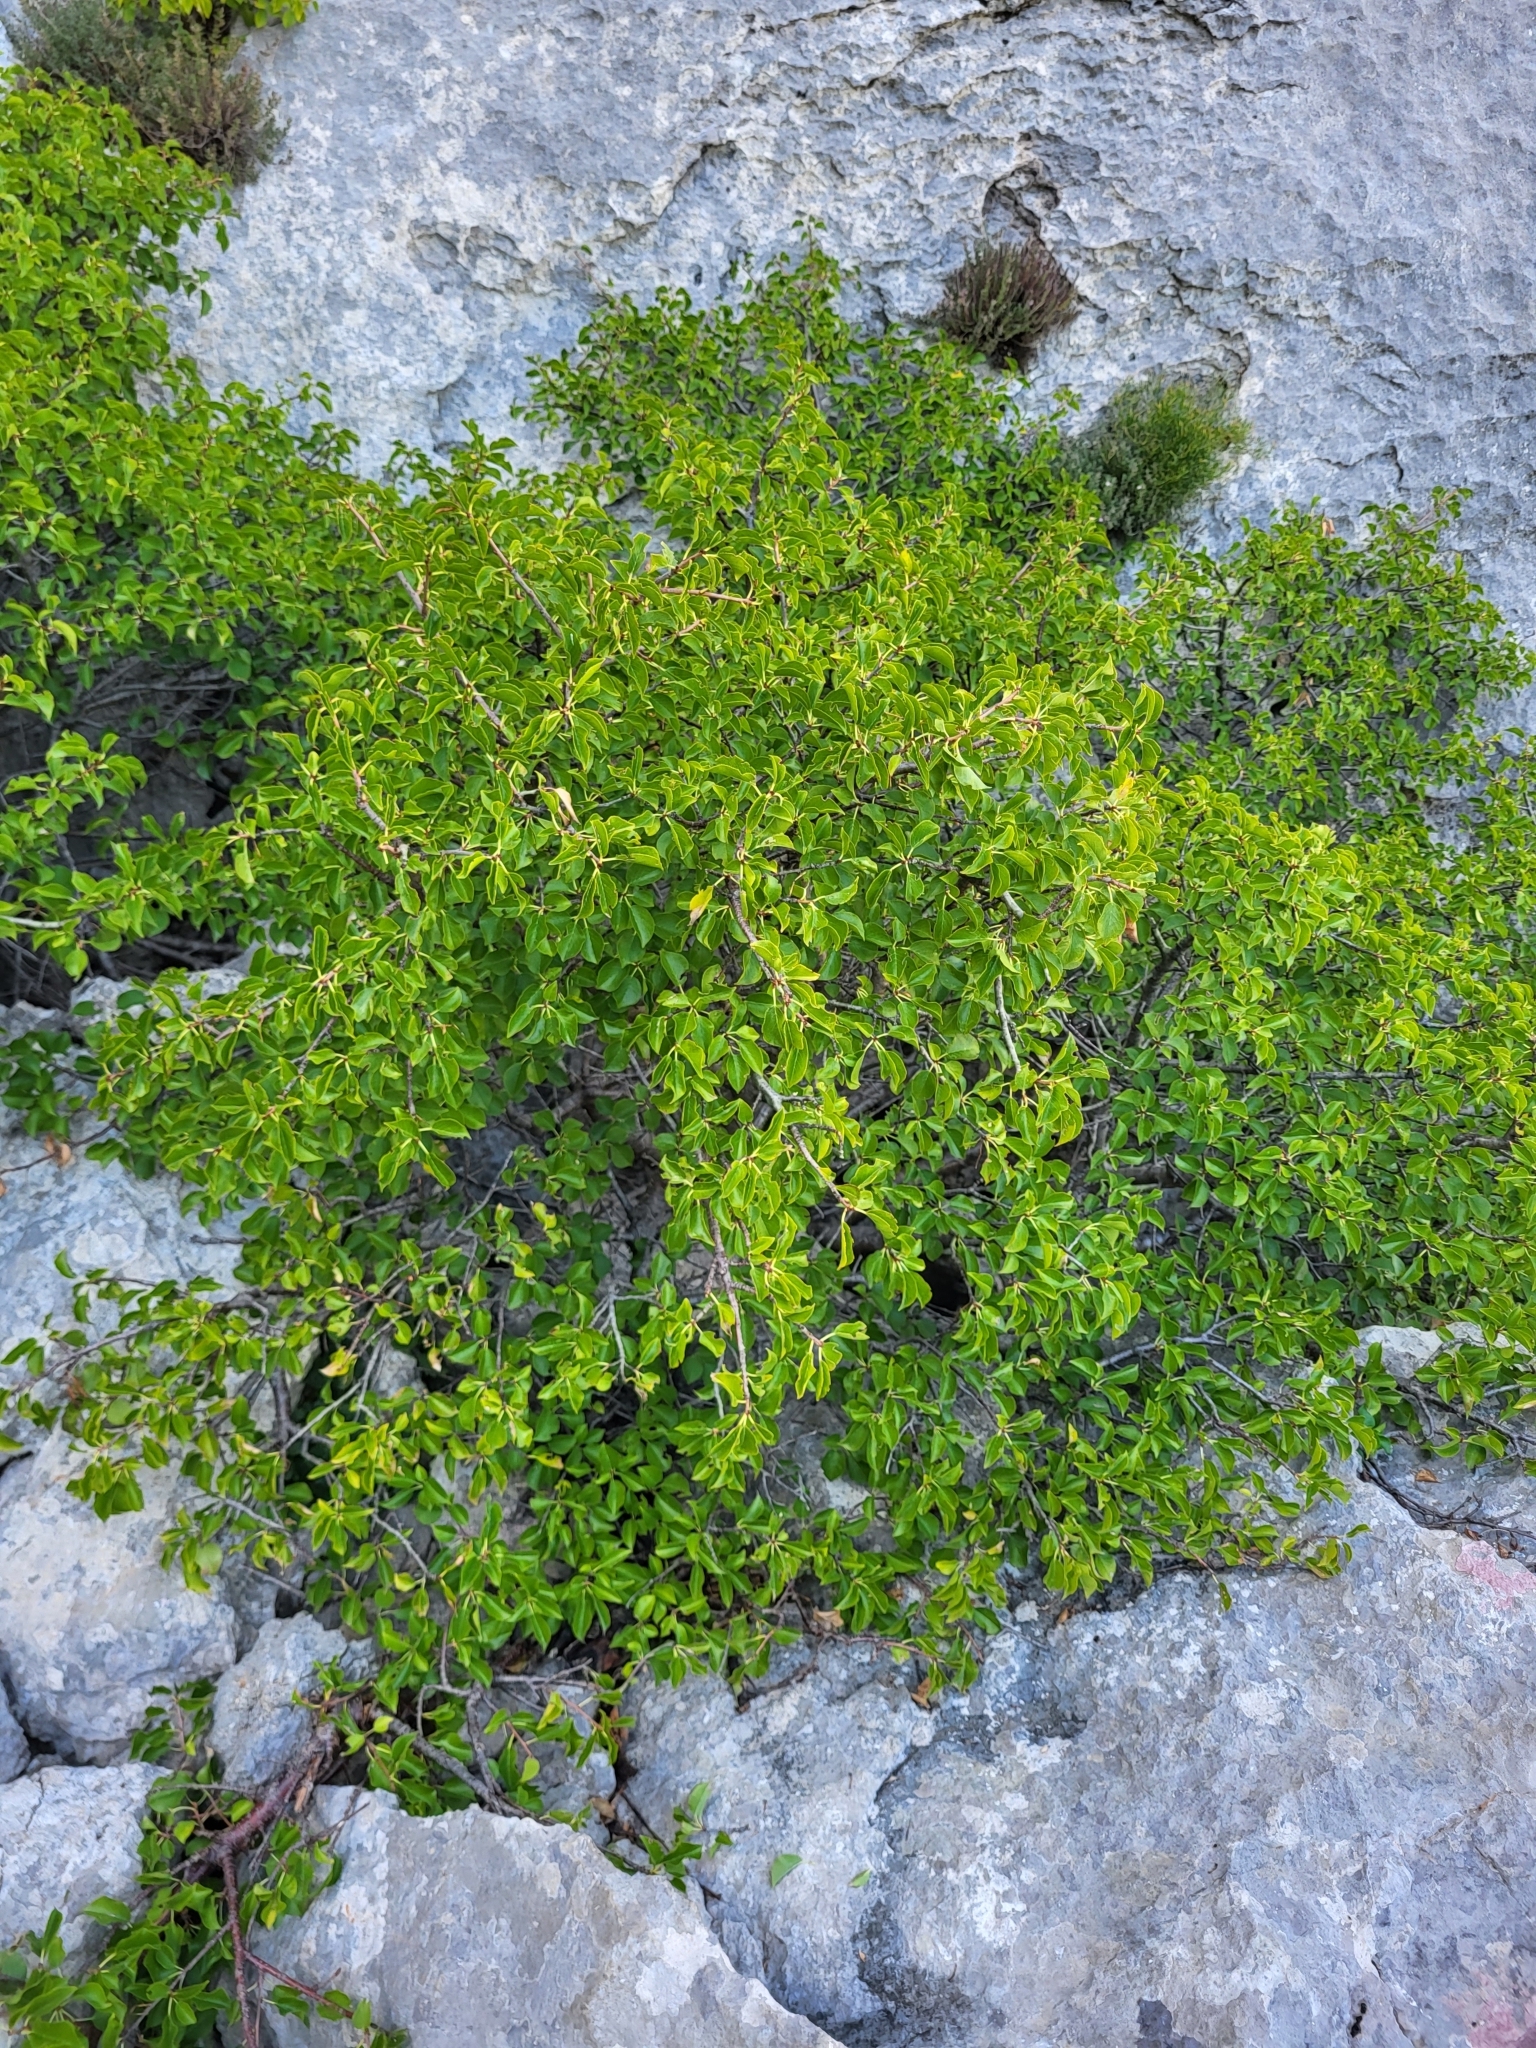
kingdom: Plantae
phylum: Tracheophyta
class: Magnoliopsida
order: Rosales
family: Rosaceae
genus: Prunus
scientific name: Prunus mahaleb
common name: Mahaleb cherry
